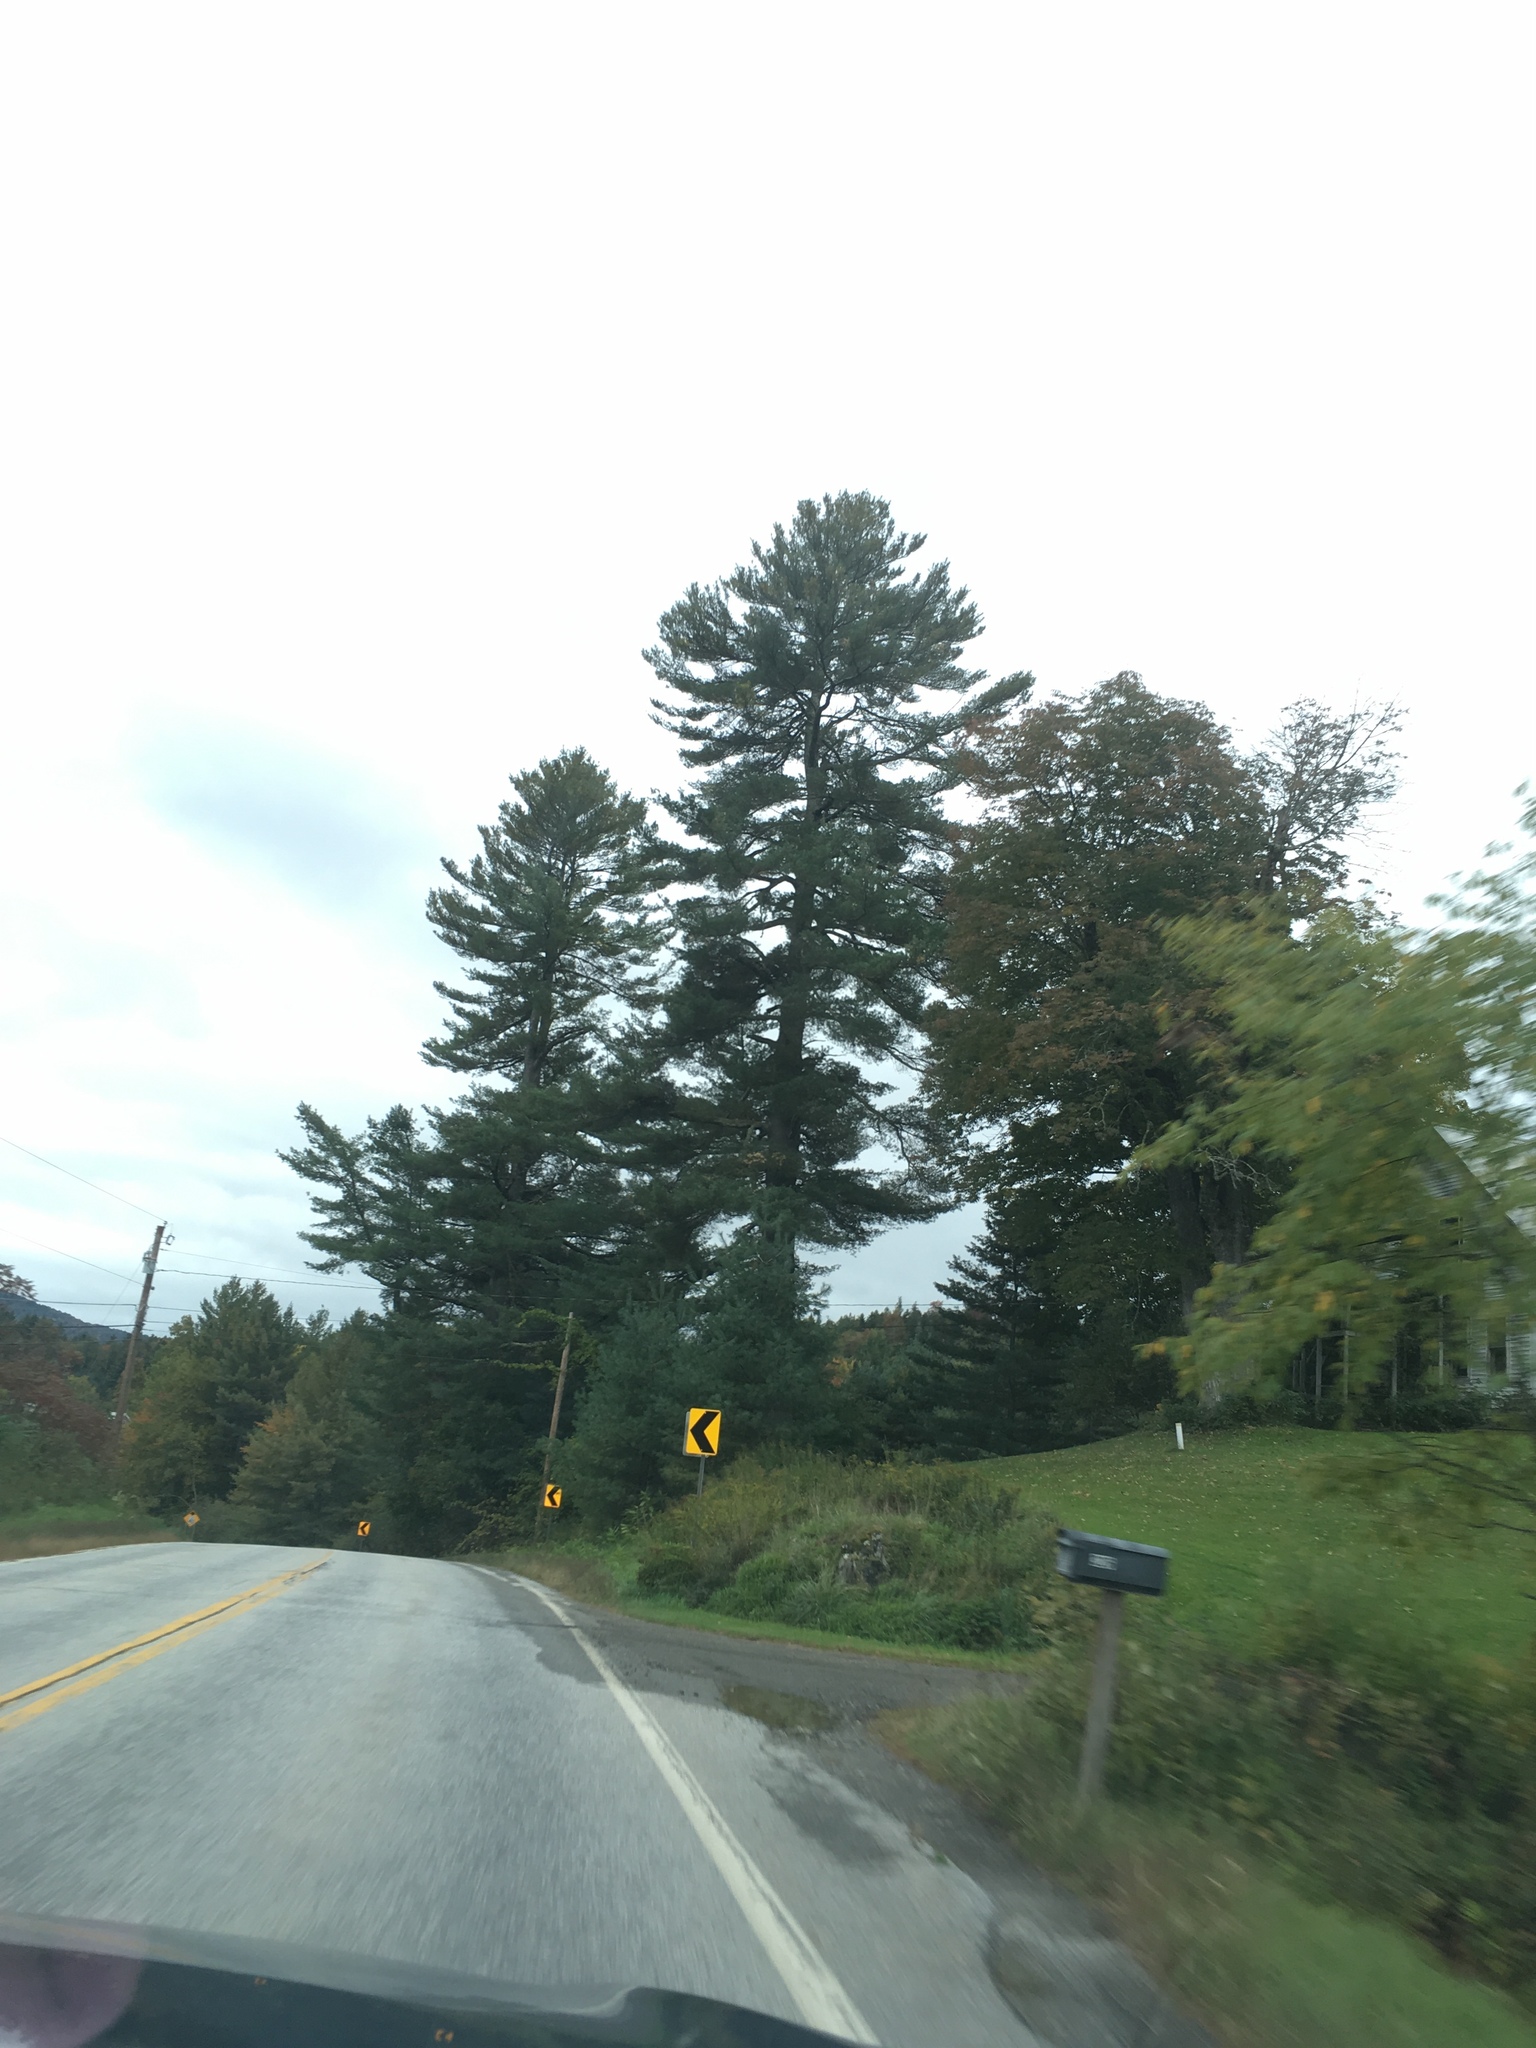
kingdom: Plantae
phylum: Tracheophyta
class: Pinopsida
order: Pinales
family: Pinaceae
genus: Pinus
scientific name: Pinus strobus
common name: Weymouth pine
